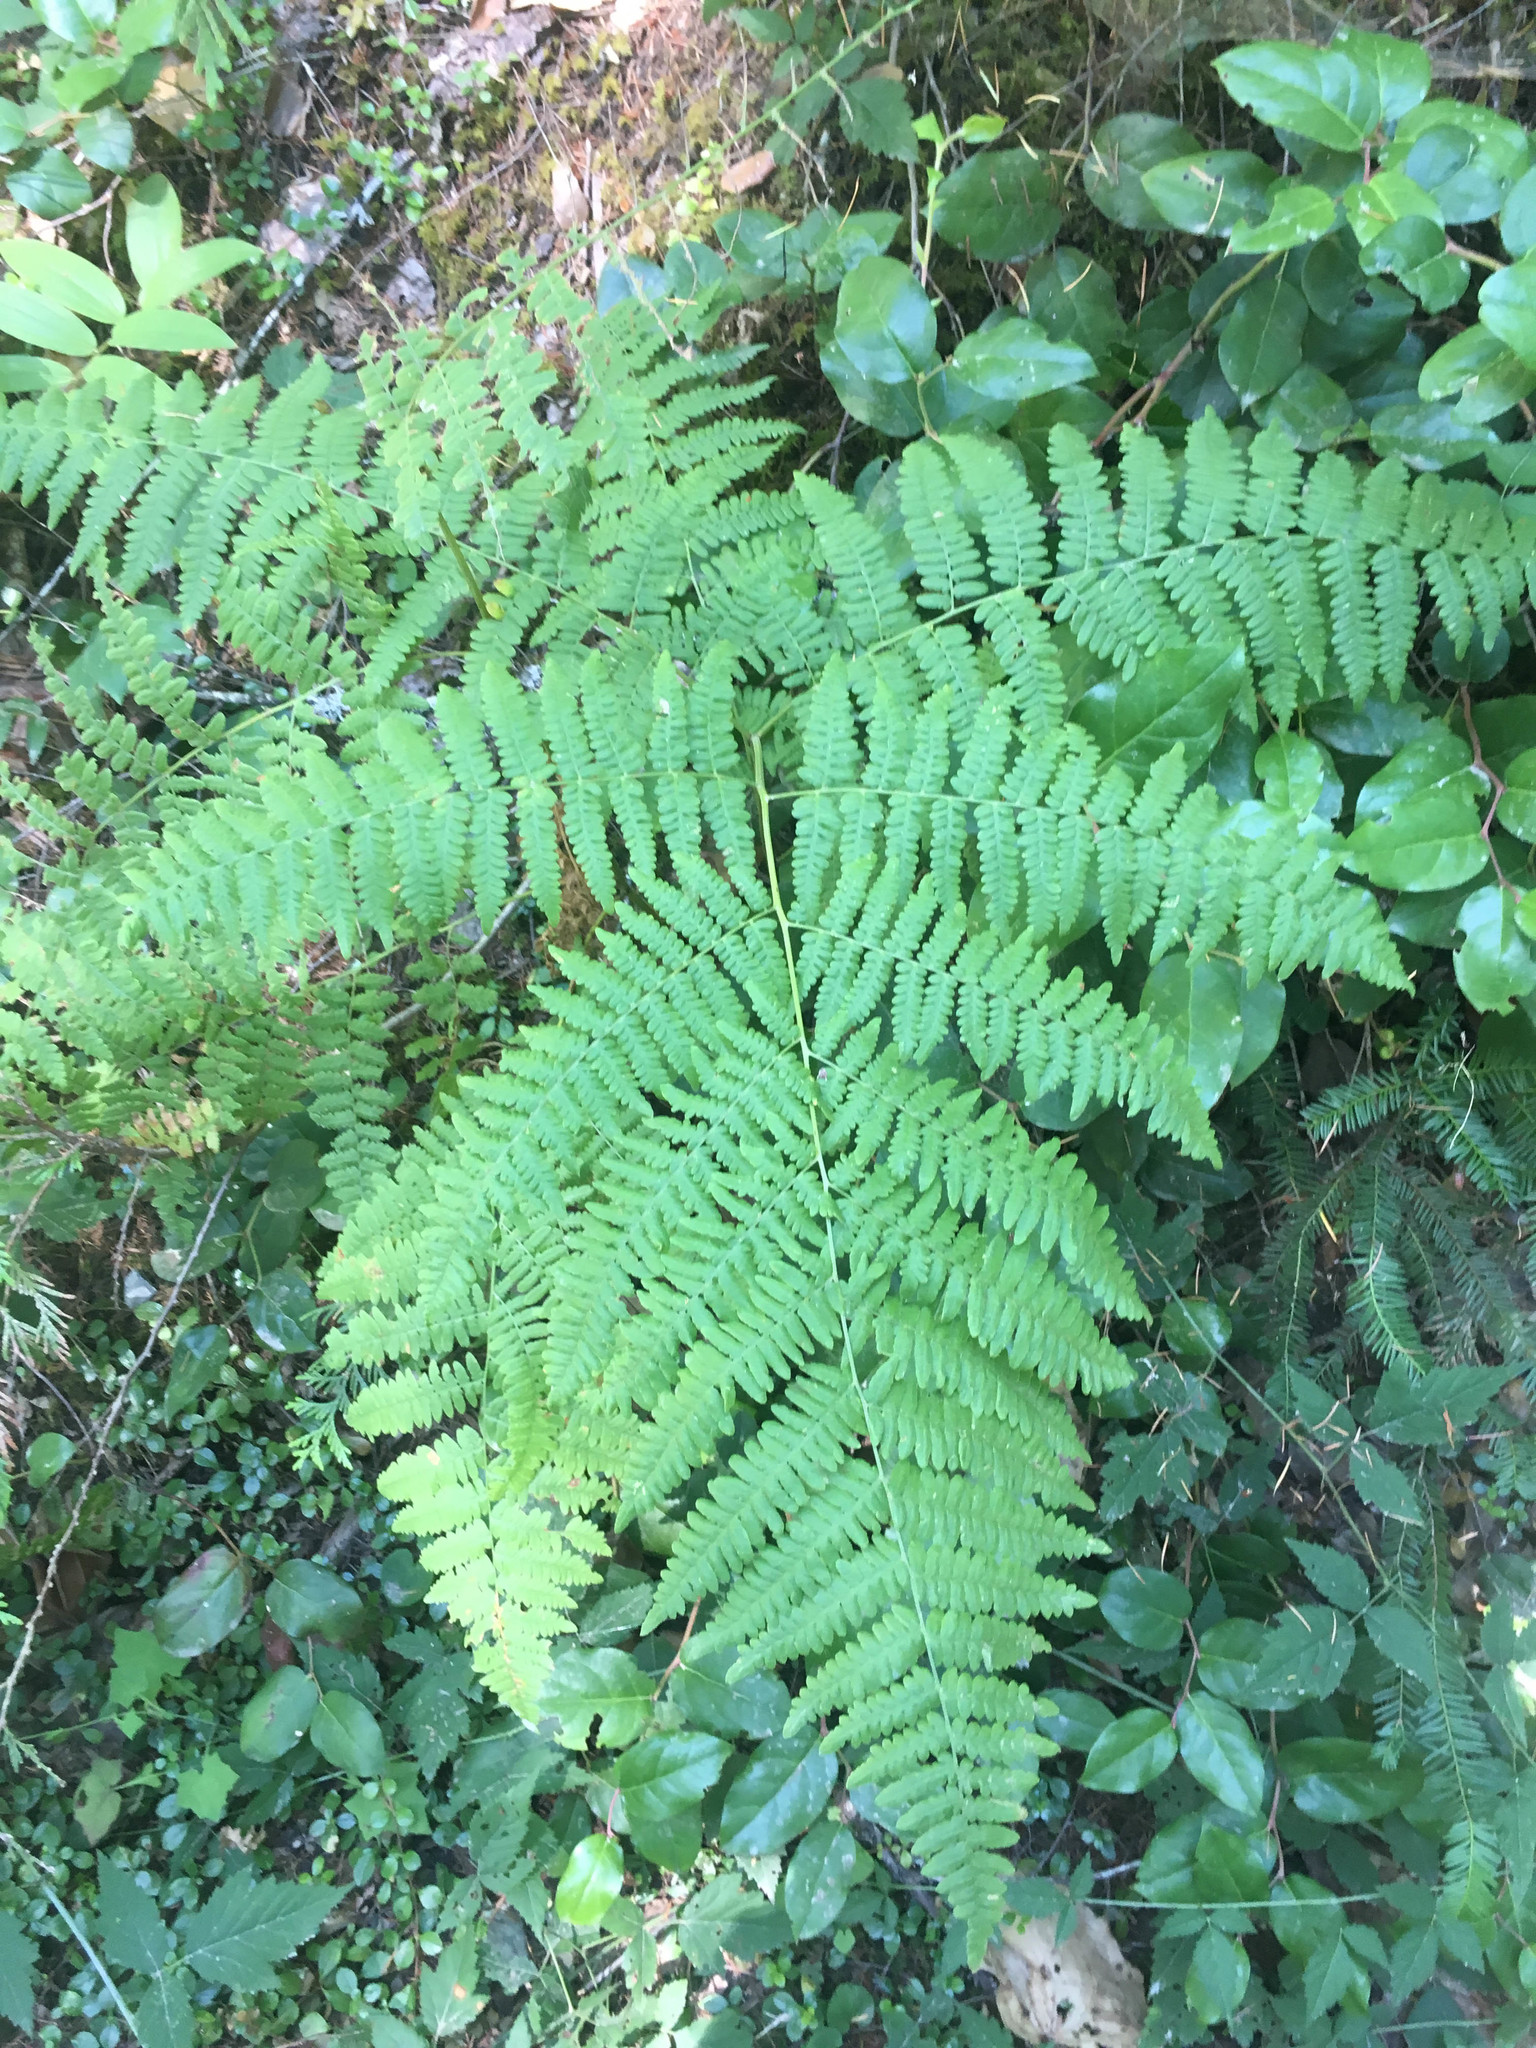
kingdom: Plantae
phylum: Tracheophyta
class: Polypodiopsida
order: Polypodiales
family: Dennstaedtiaceae
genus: Pteridium
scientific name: Pteridium aquilinum
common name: Bracken
